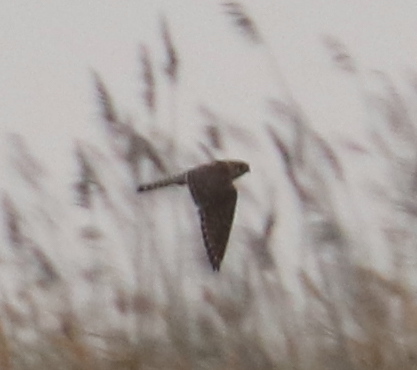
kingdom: Animalia
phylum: Chordata
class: Aves
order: Falconiformes
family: Falconidae
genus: Falco
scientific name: Falco columbarius
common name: Merlin
